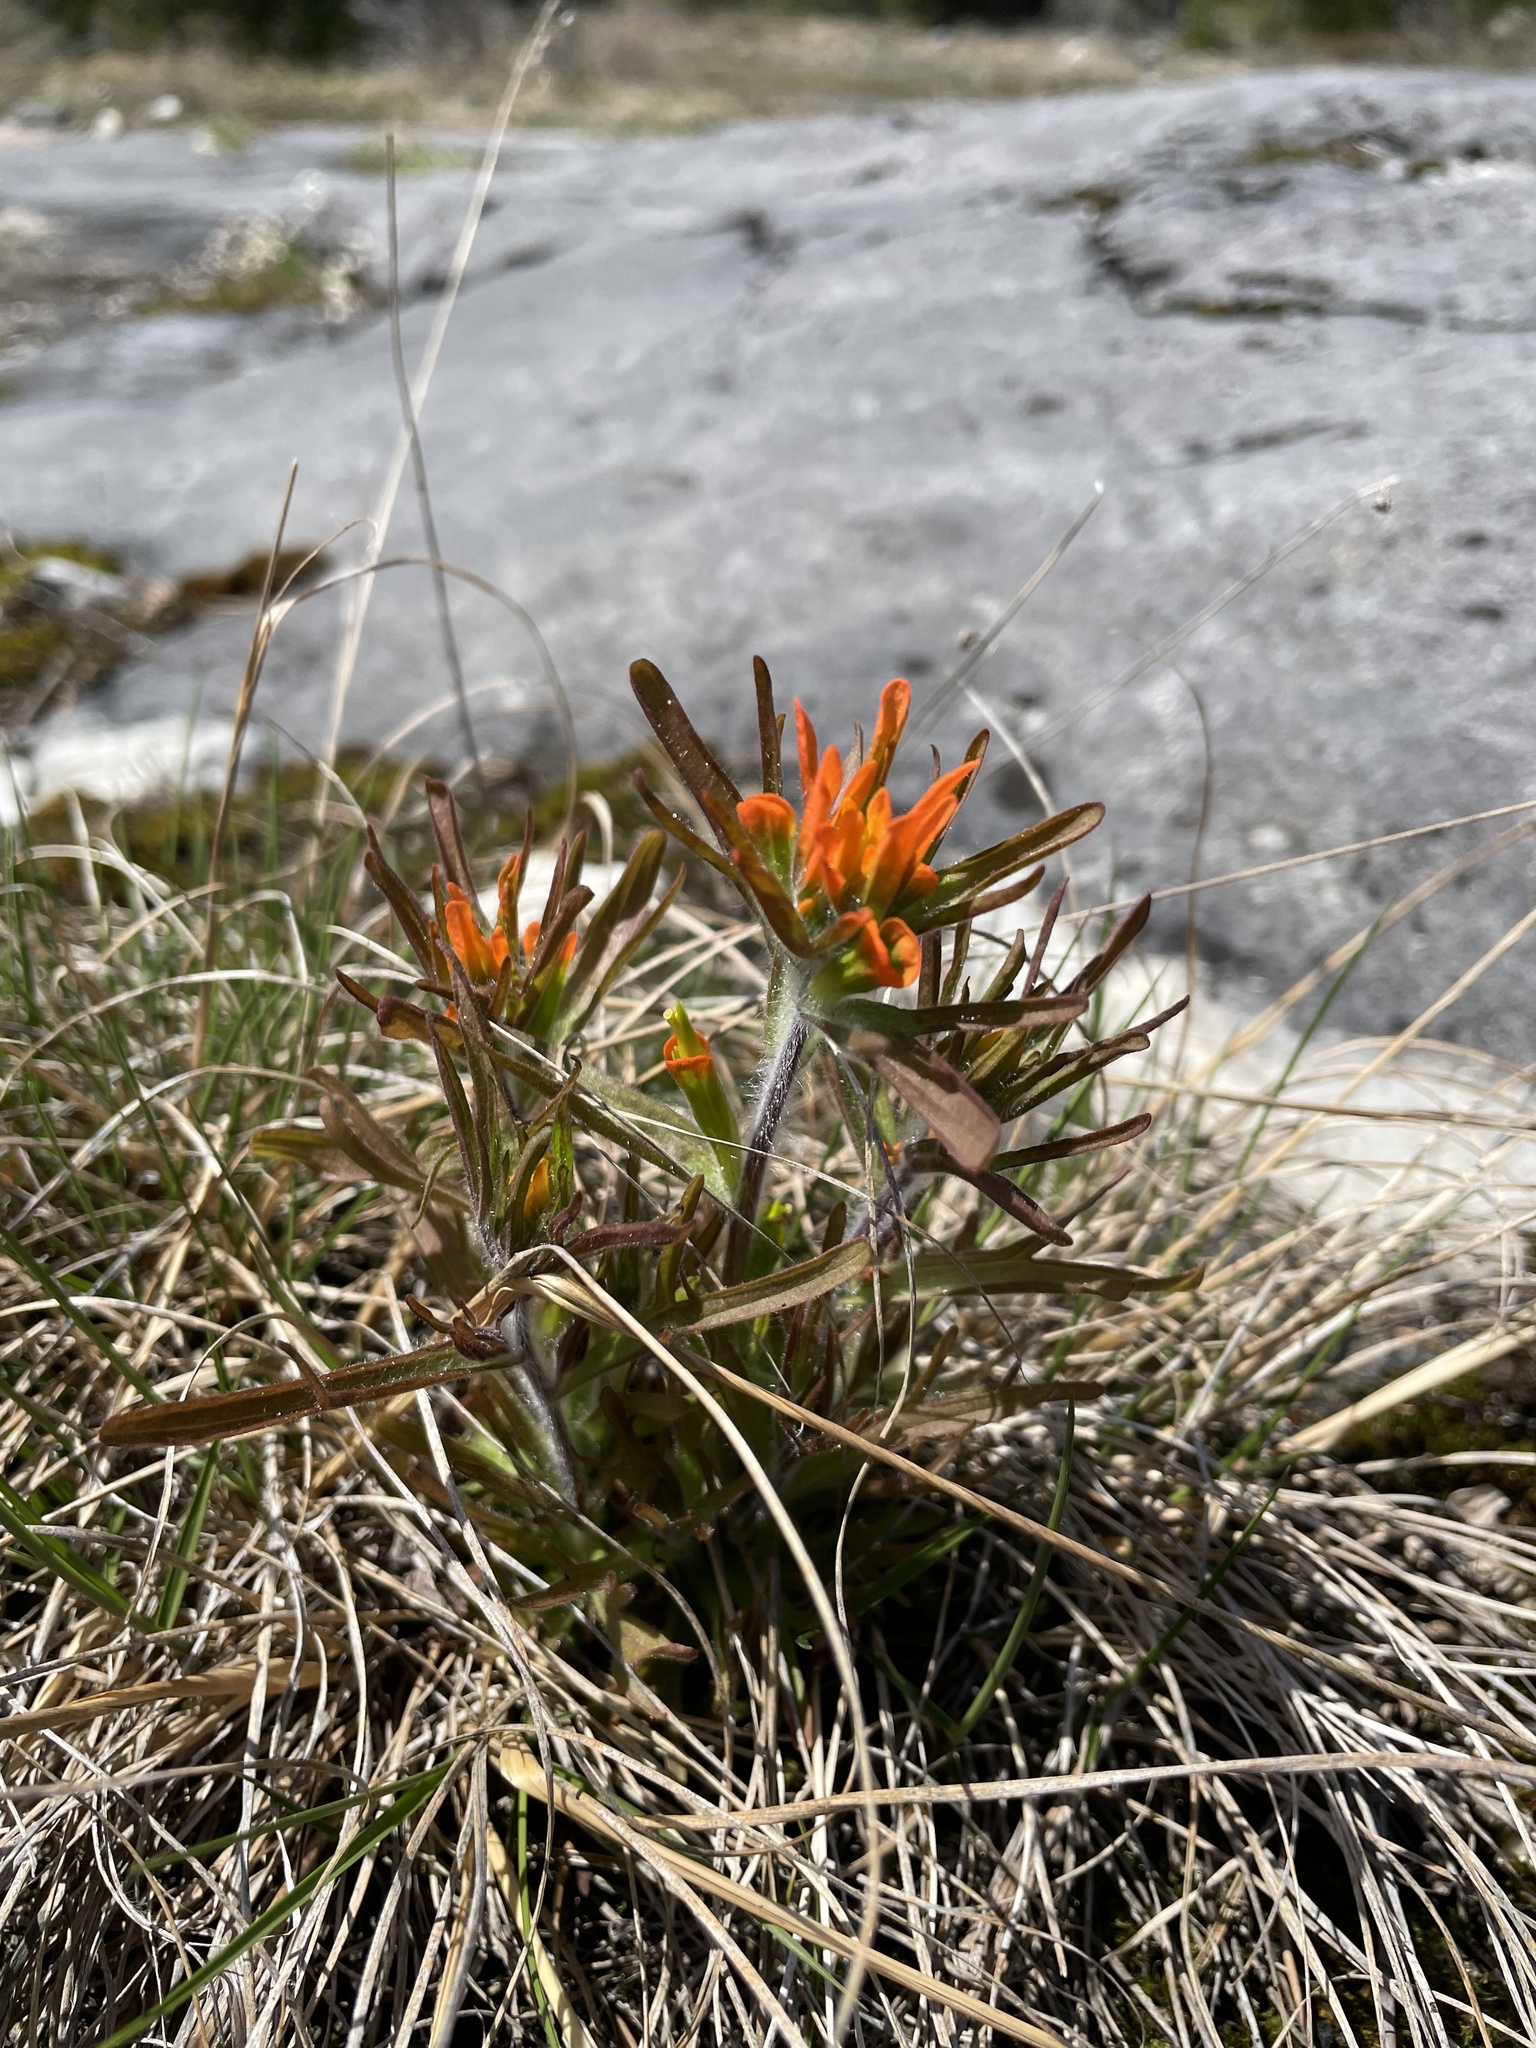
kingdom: Plantae
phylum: Tracheophyta
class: Magnoliopsida
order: Lamiales
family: Orobanchaceae
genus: Castilleja
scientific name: Castilleja coccinea
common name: Scarlet paintbrush
